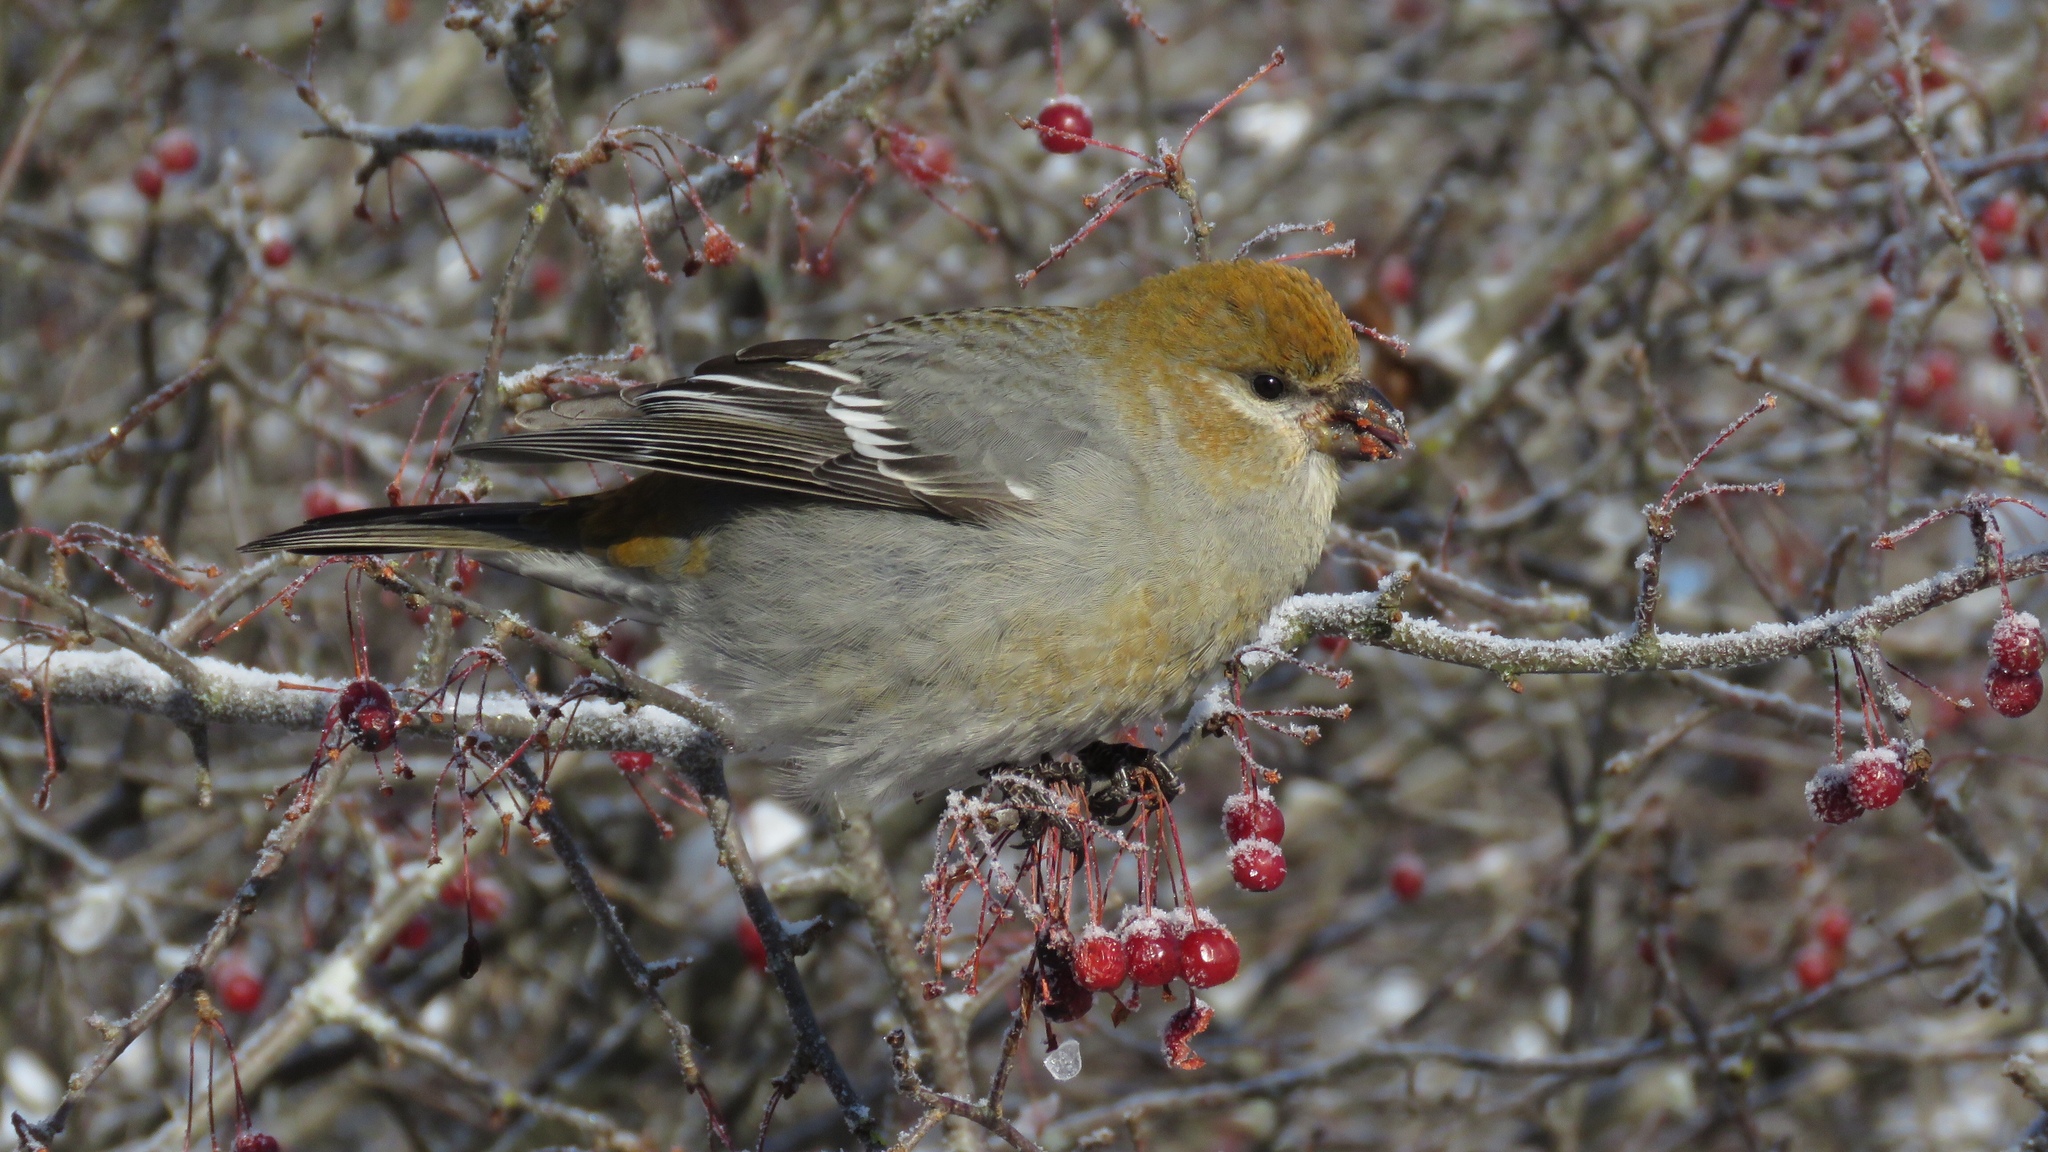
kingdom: Animalia
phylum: Chordata
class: Aves
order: Passeriformes
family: Fringillidae
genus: Pinicola
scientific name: Pinicola enucleator
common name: Pine grosbeak
